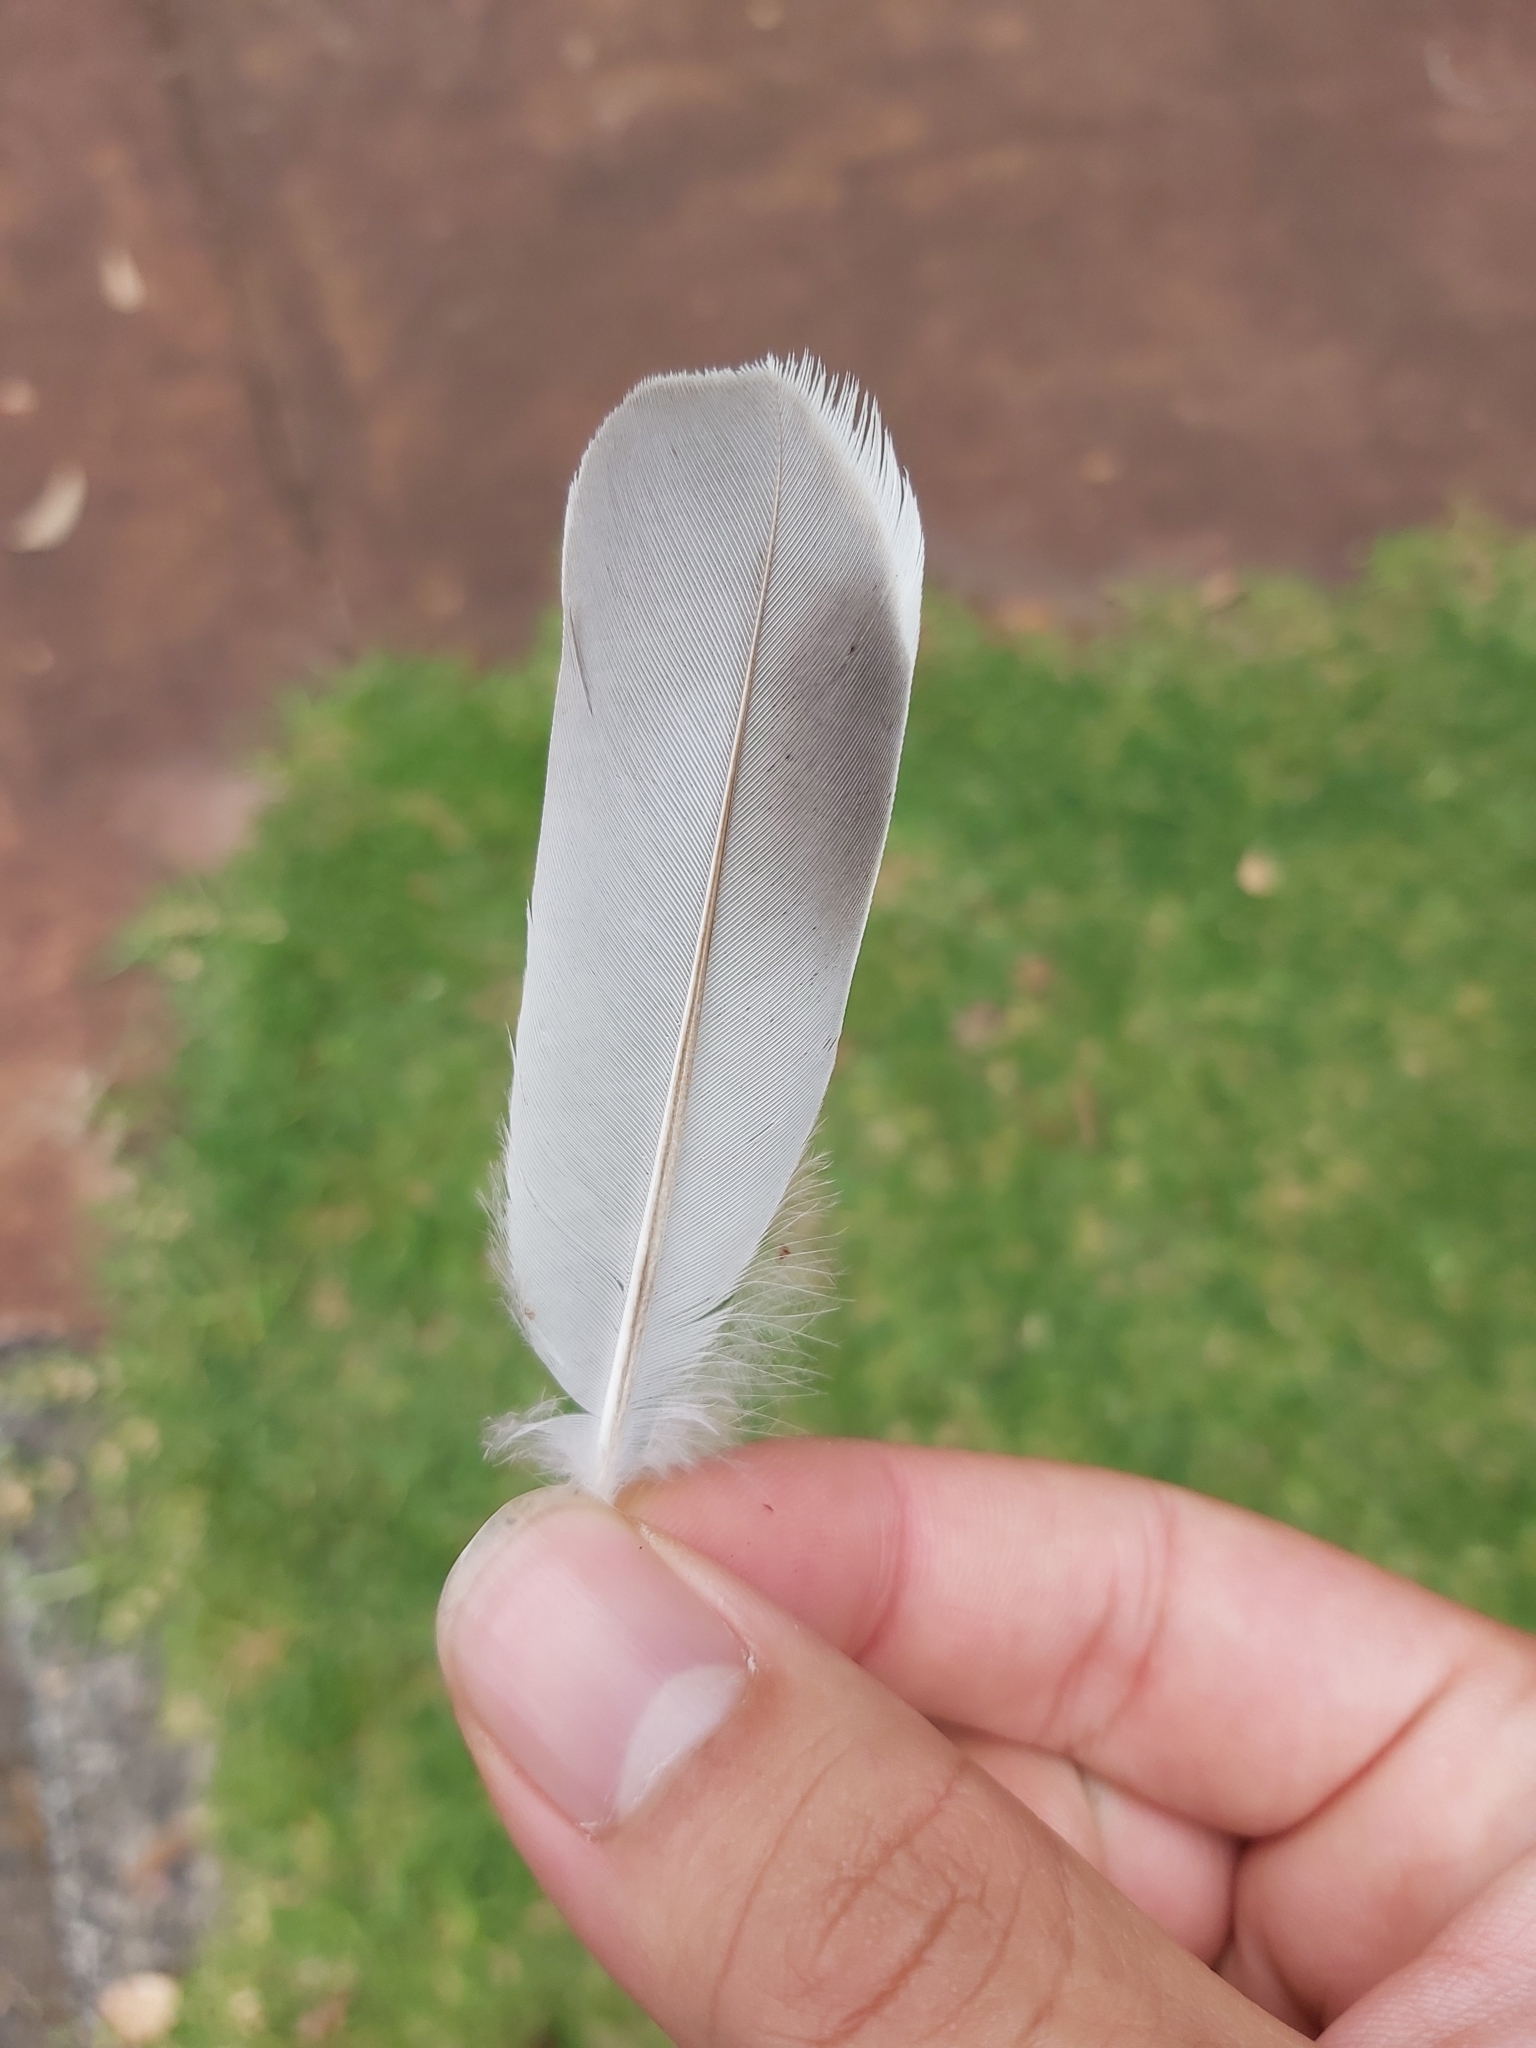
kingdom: Animalia
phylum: Chordata
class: Aves
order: Columbiformes
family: Columbidae
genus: Ocyphaps
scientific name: Ocyphaps lophotes
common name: Crested pigeon
